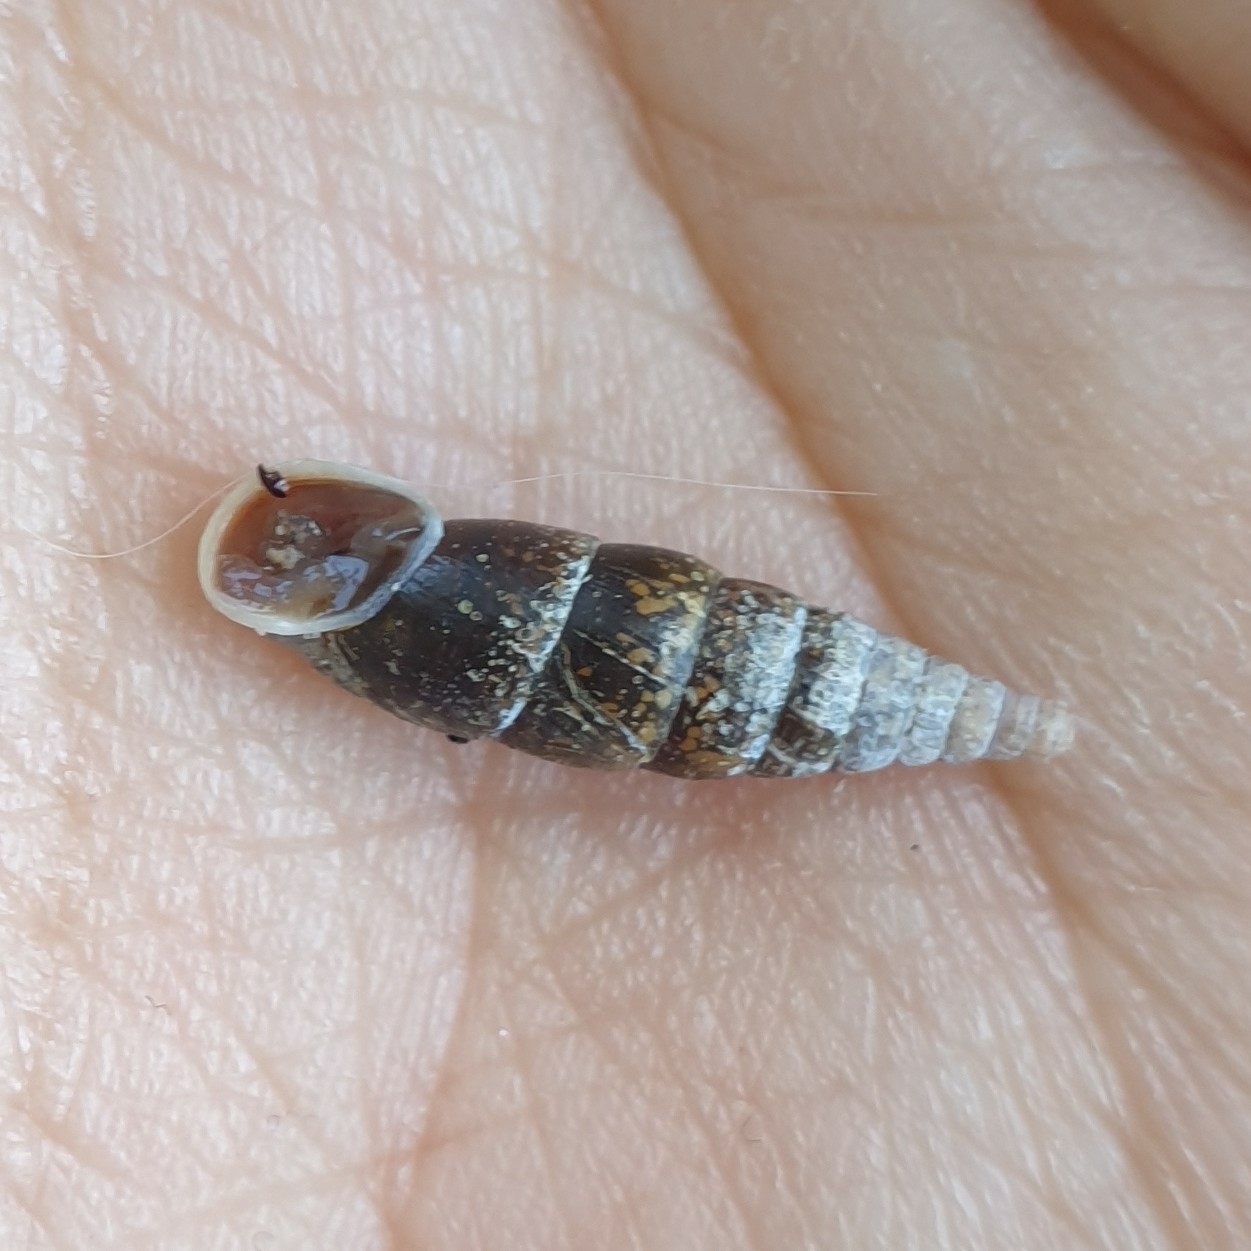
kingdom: Animalia
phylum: Mollusca
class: Gastropoda
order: Stylommatophora
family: Clausiliidae
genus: Cochlodina
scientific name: Cochlodina laminata
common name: Plaited door snail
